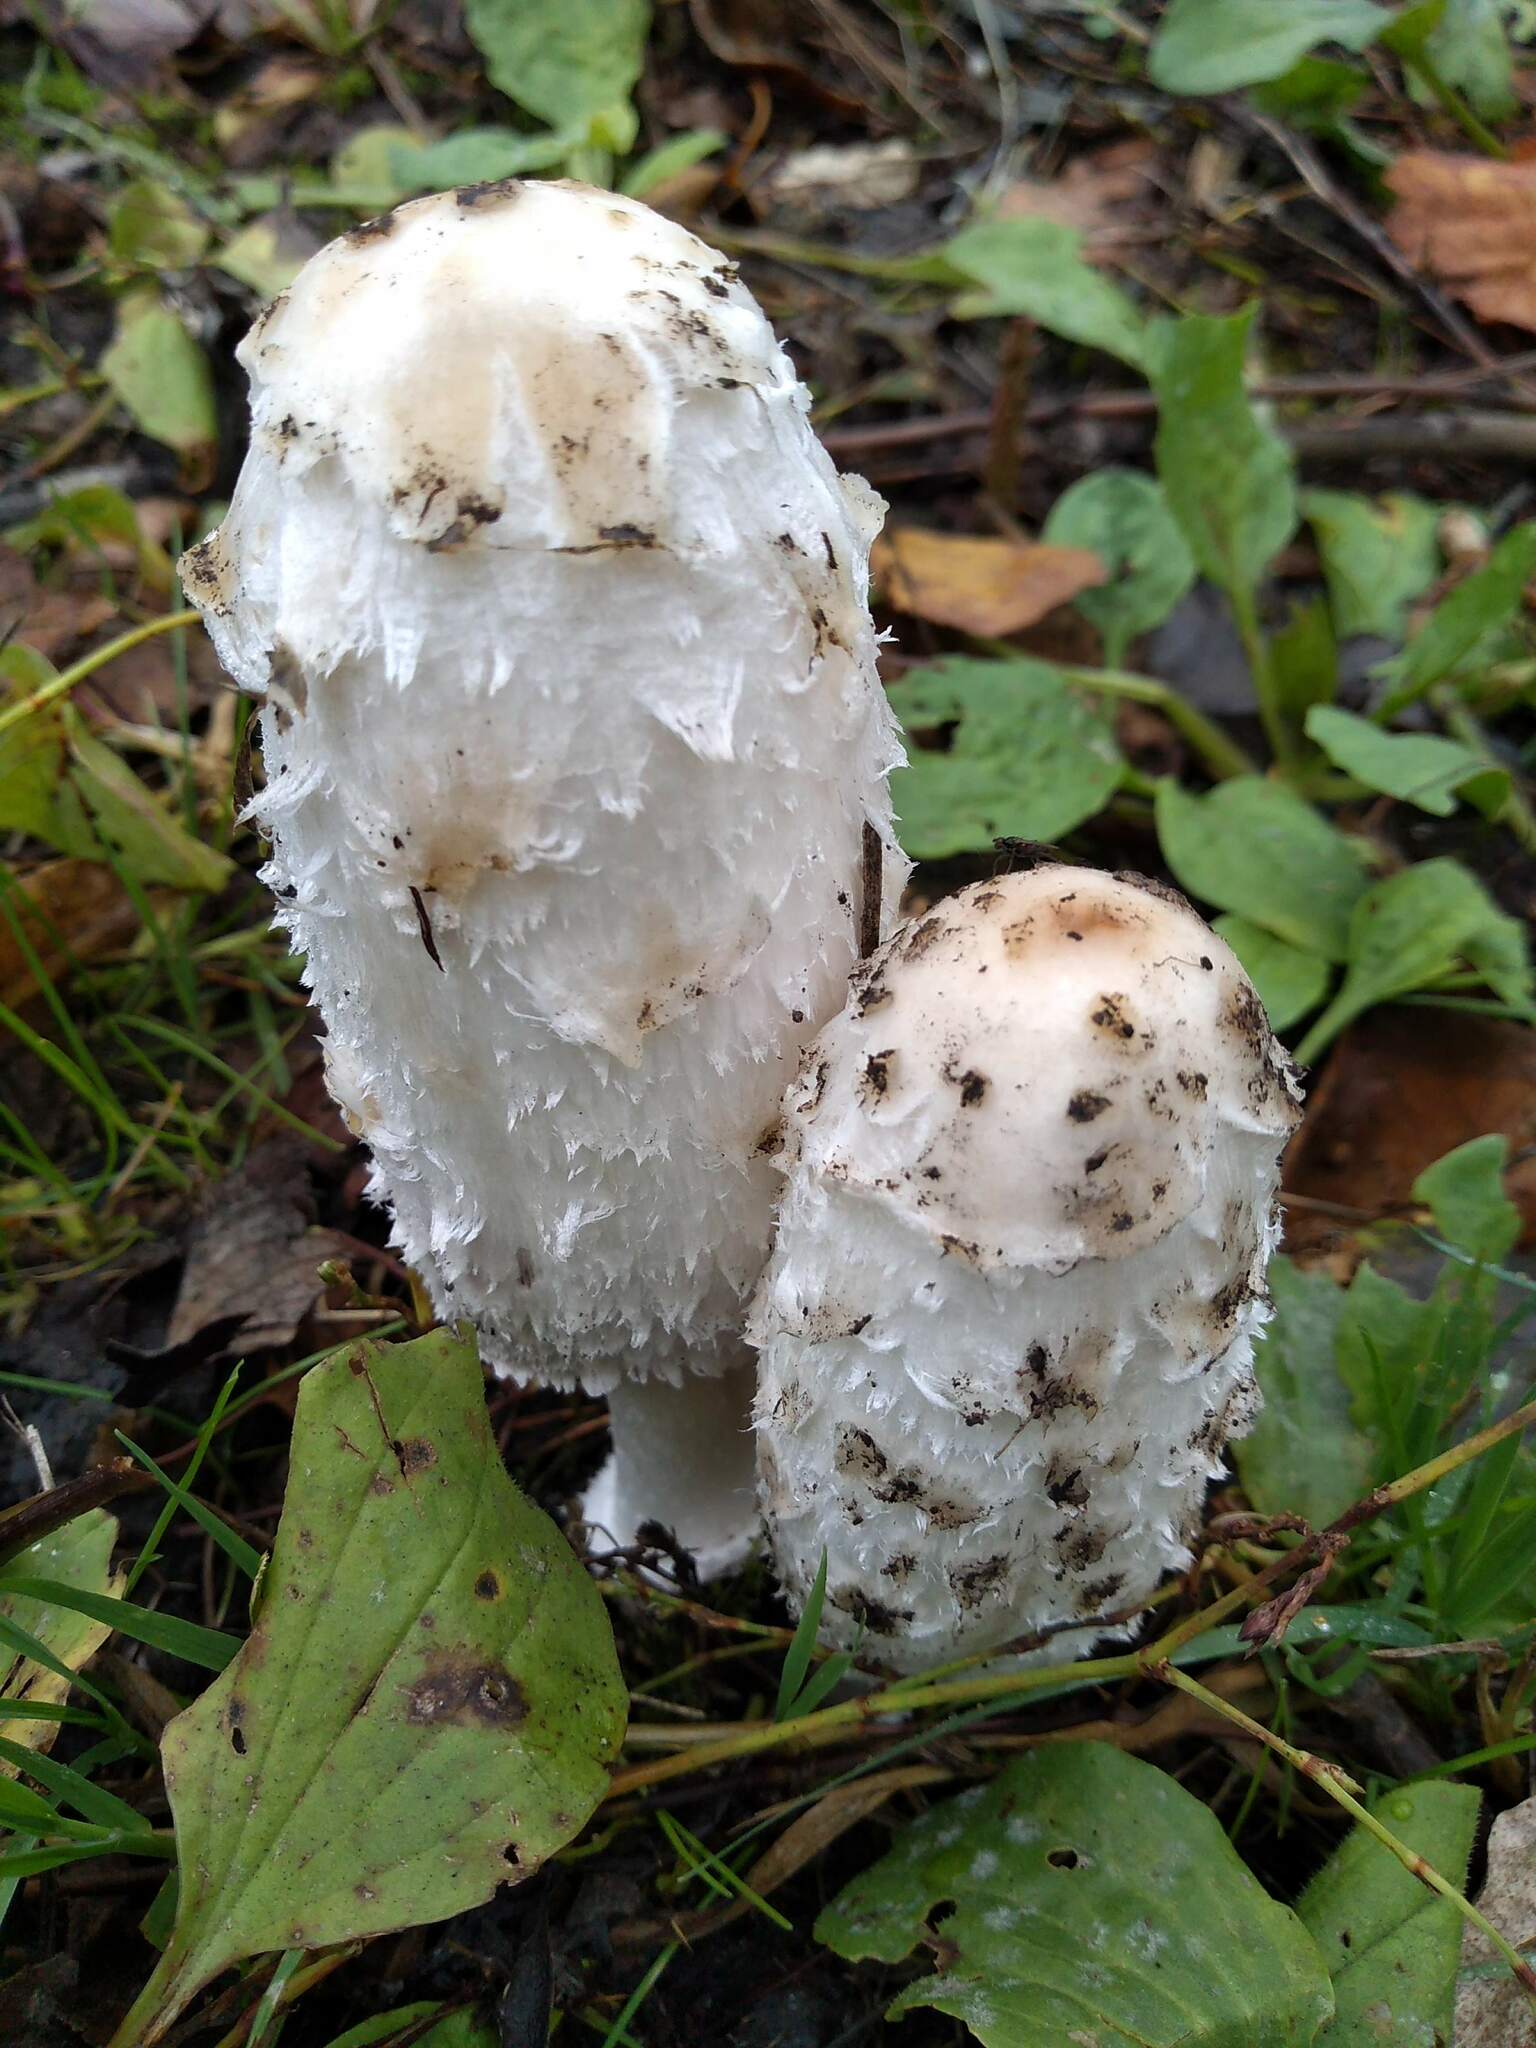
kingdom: Fungi
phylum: Basidiomycota
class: Agaricomycetes
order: Agaricales
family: Agaricaceae
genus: Coprinus
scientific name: Coprinus comatus
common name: Lawyer's wig
